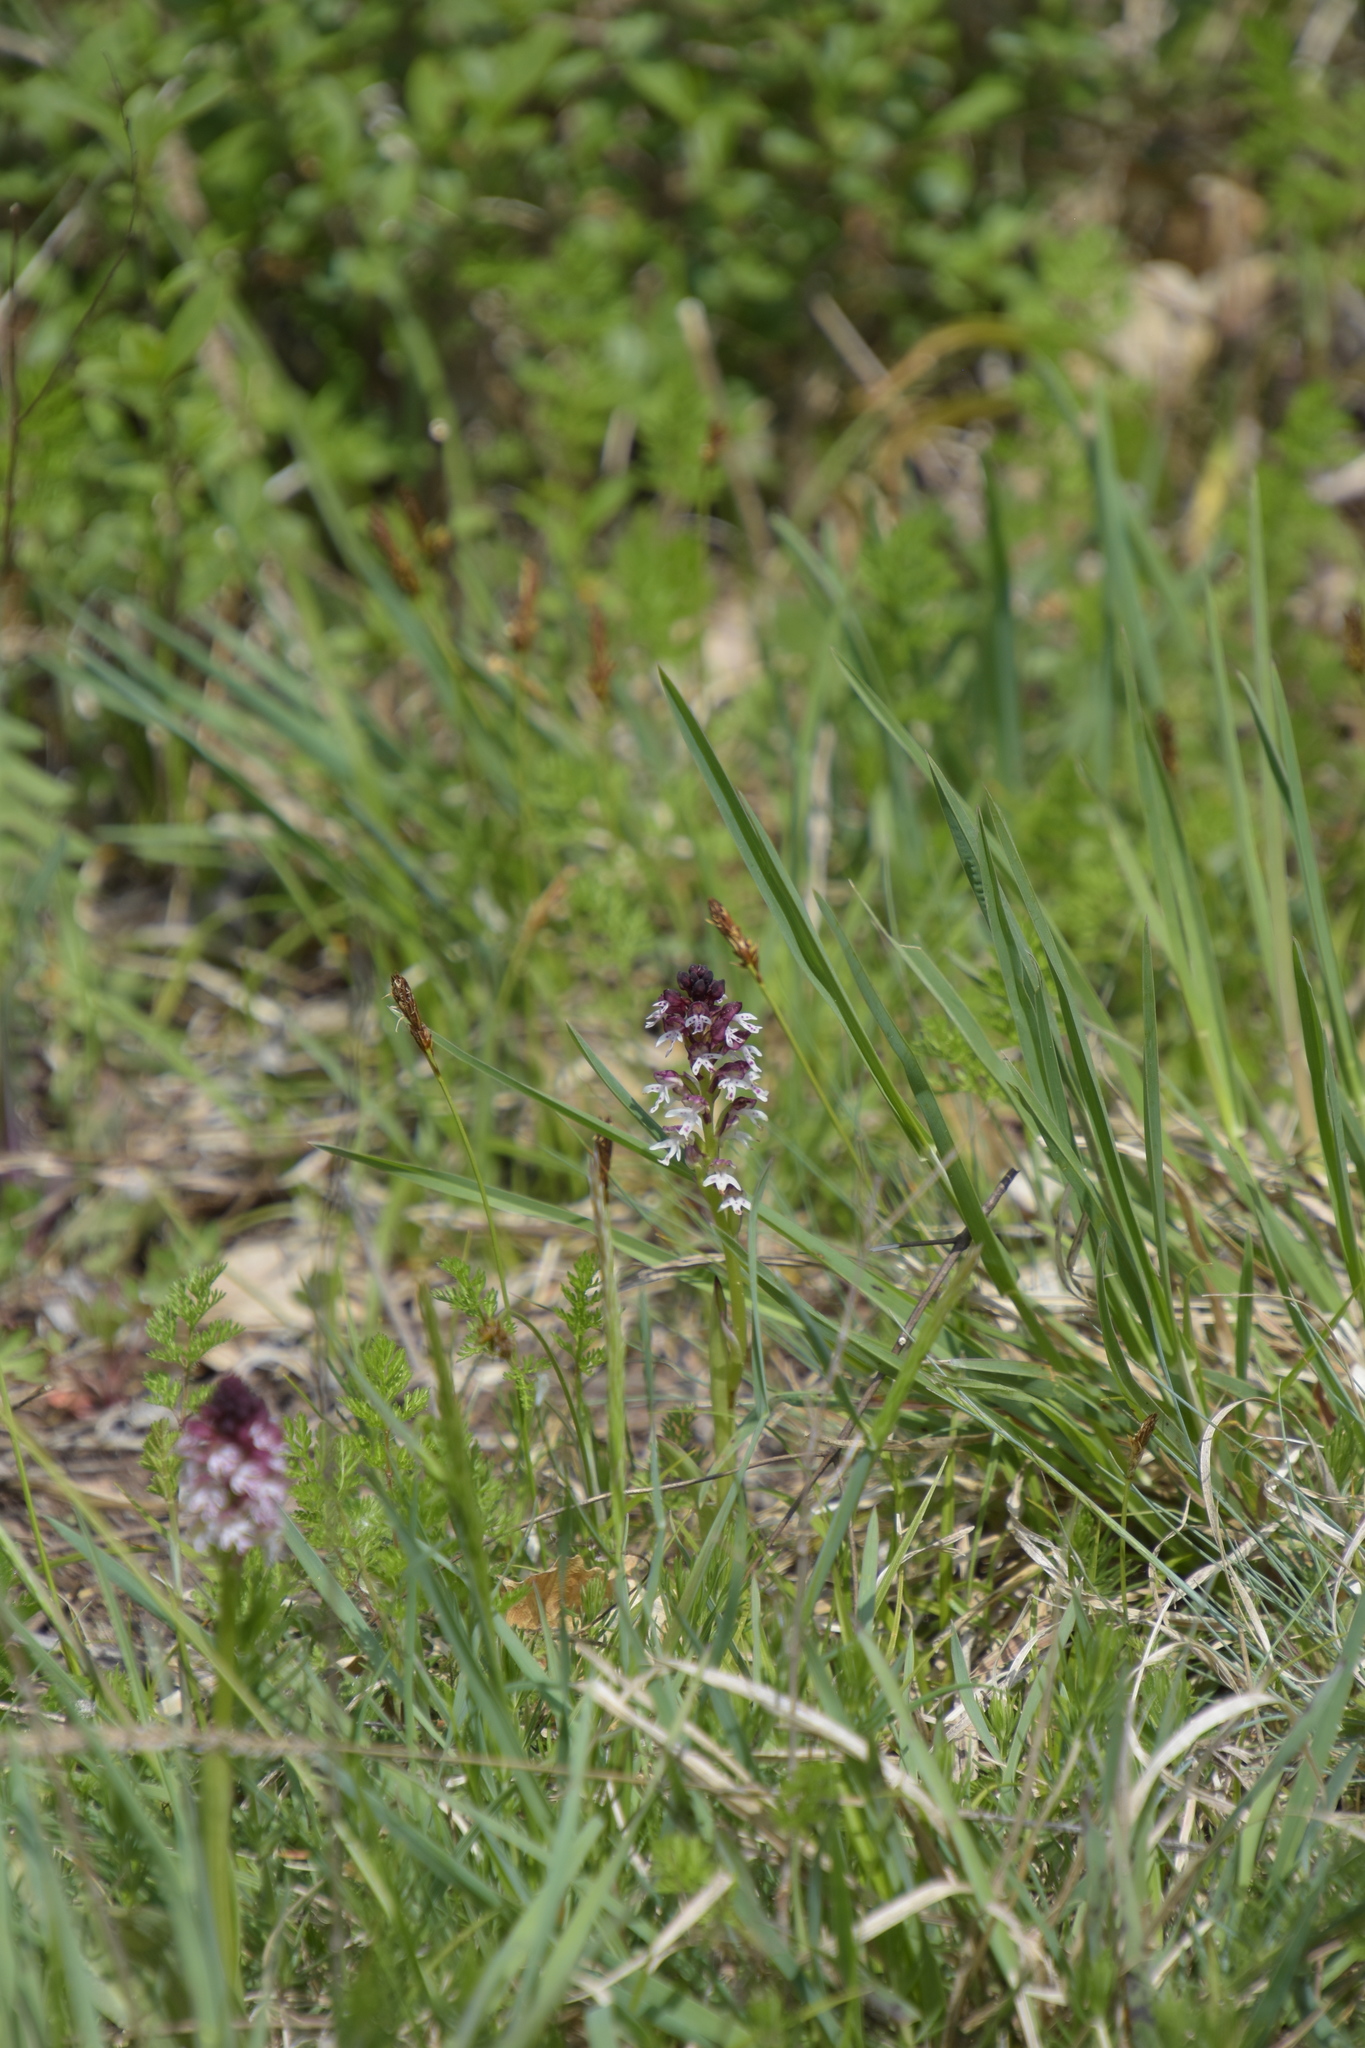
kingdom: Plantae
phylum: Tracheophyta
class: Liliopsida
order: Asparagales
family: Orchidaceae
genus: Neotinea
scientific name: Neotinea ustulata
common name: Burnt orchid
